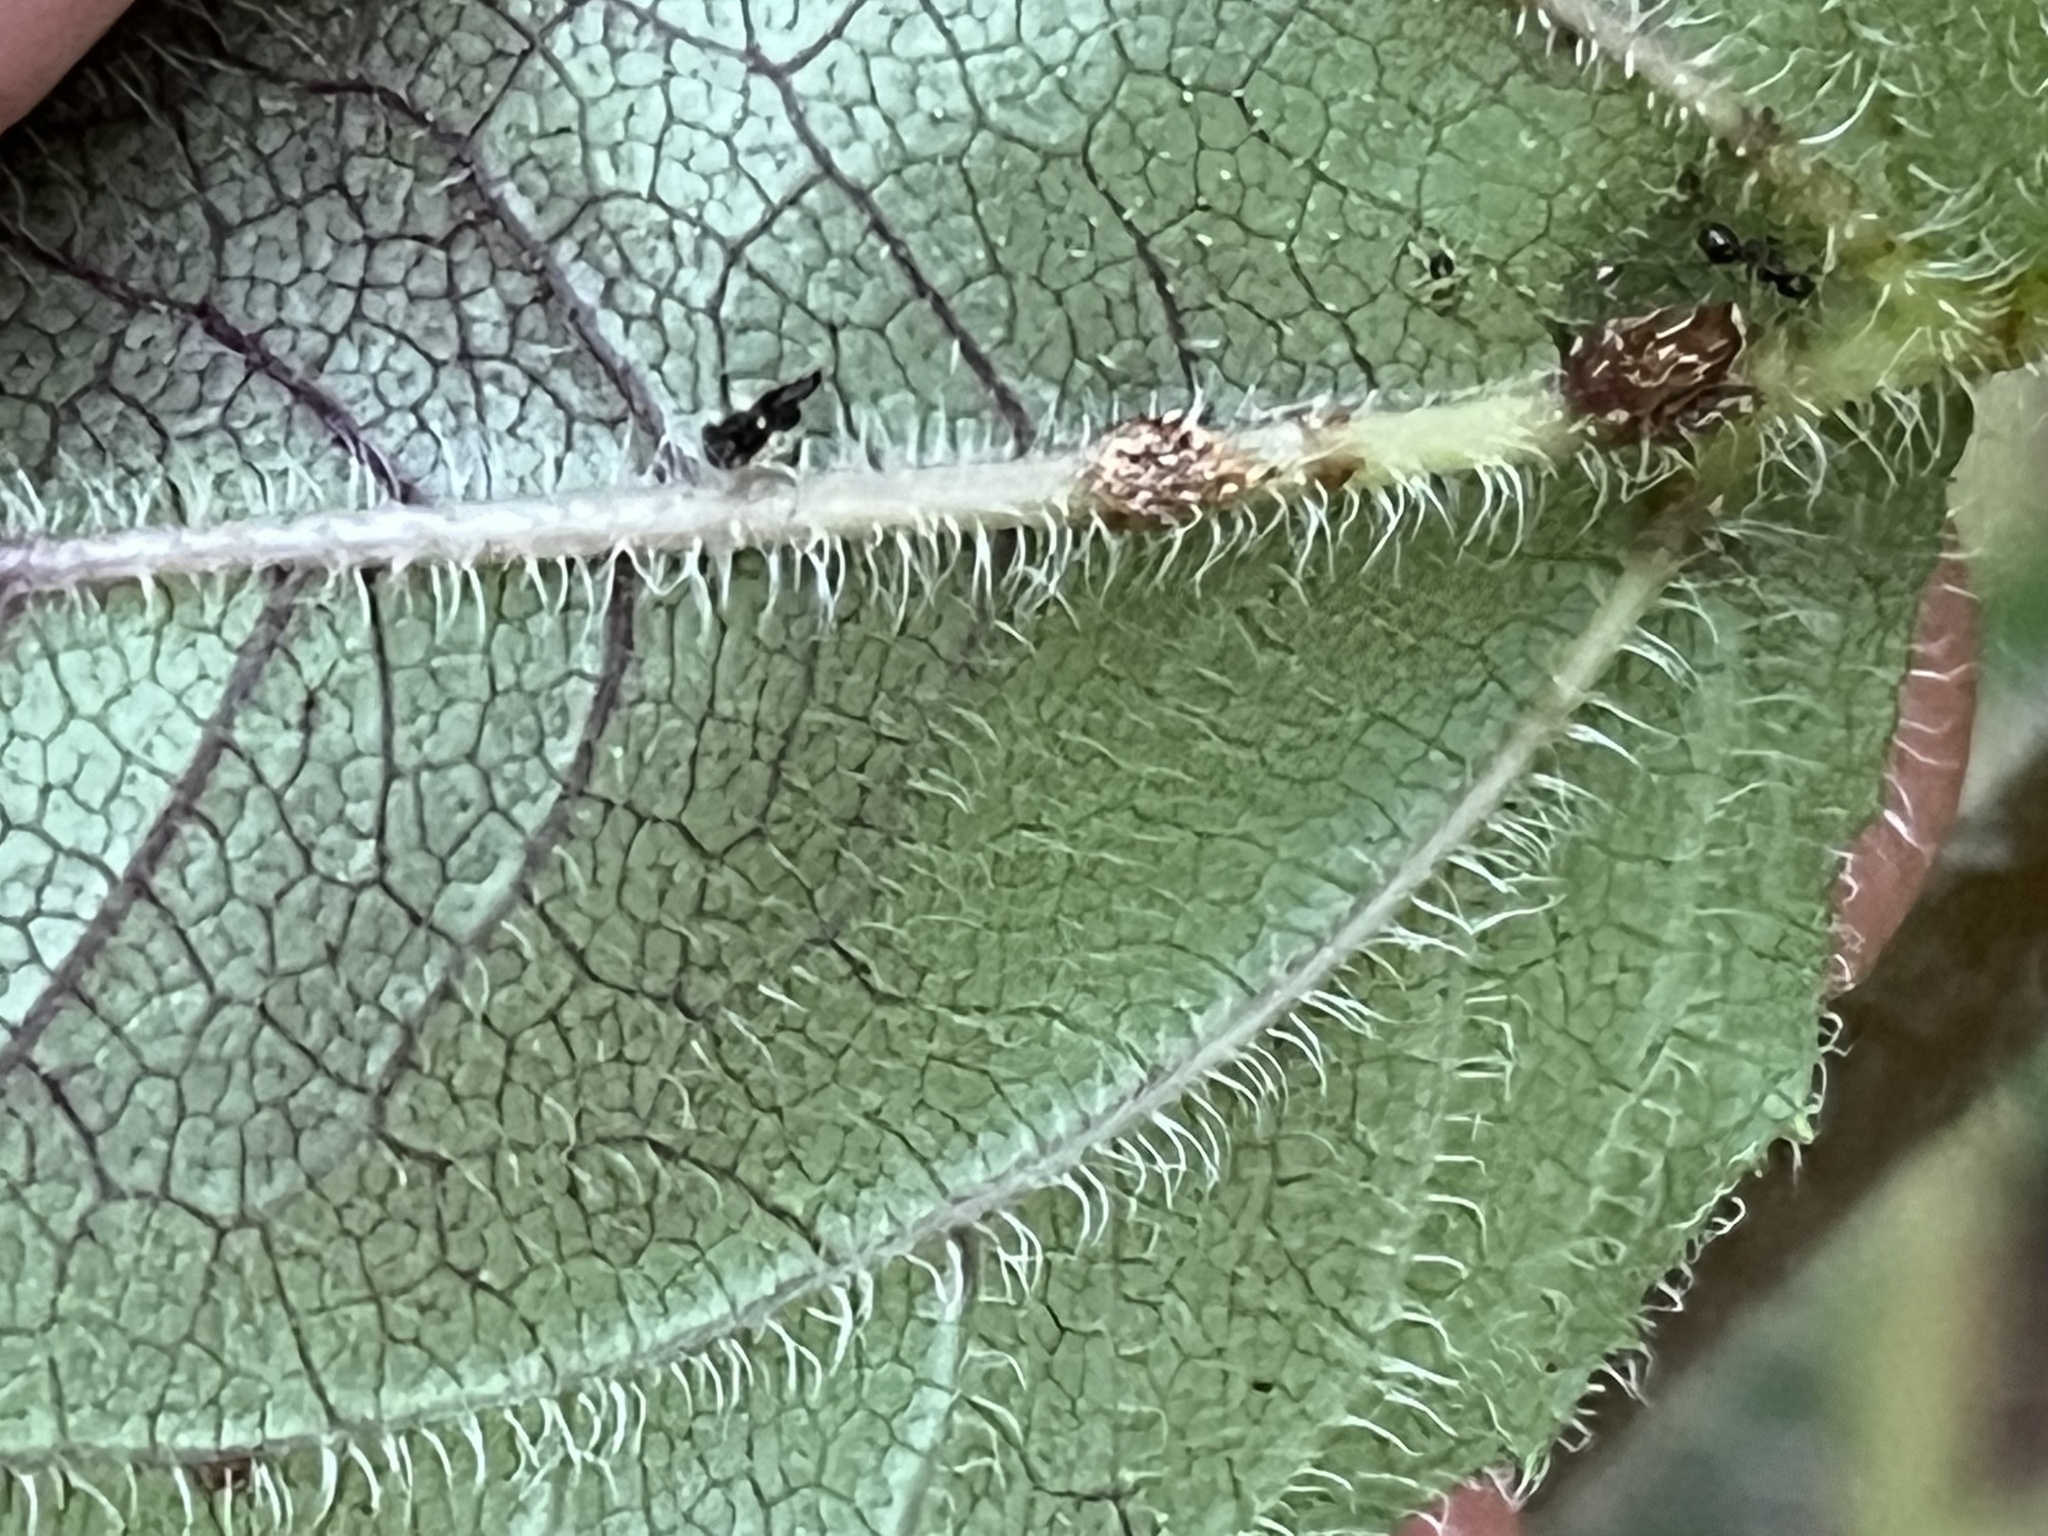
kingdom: Plantae
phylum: Tracheophyta
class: Magnoliopsida
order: Asterales
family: Asteraceae
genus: Helianthus
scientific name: Helianthus atrorubens
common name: Dark-eyed sunflower
